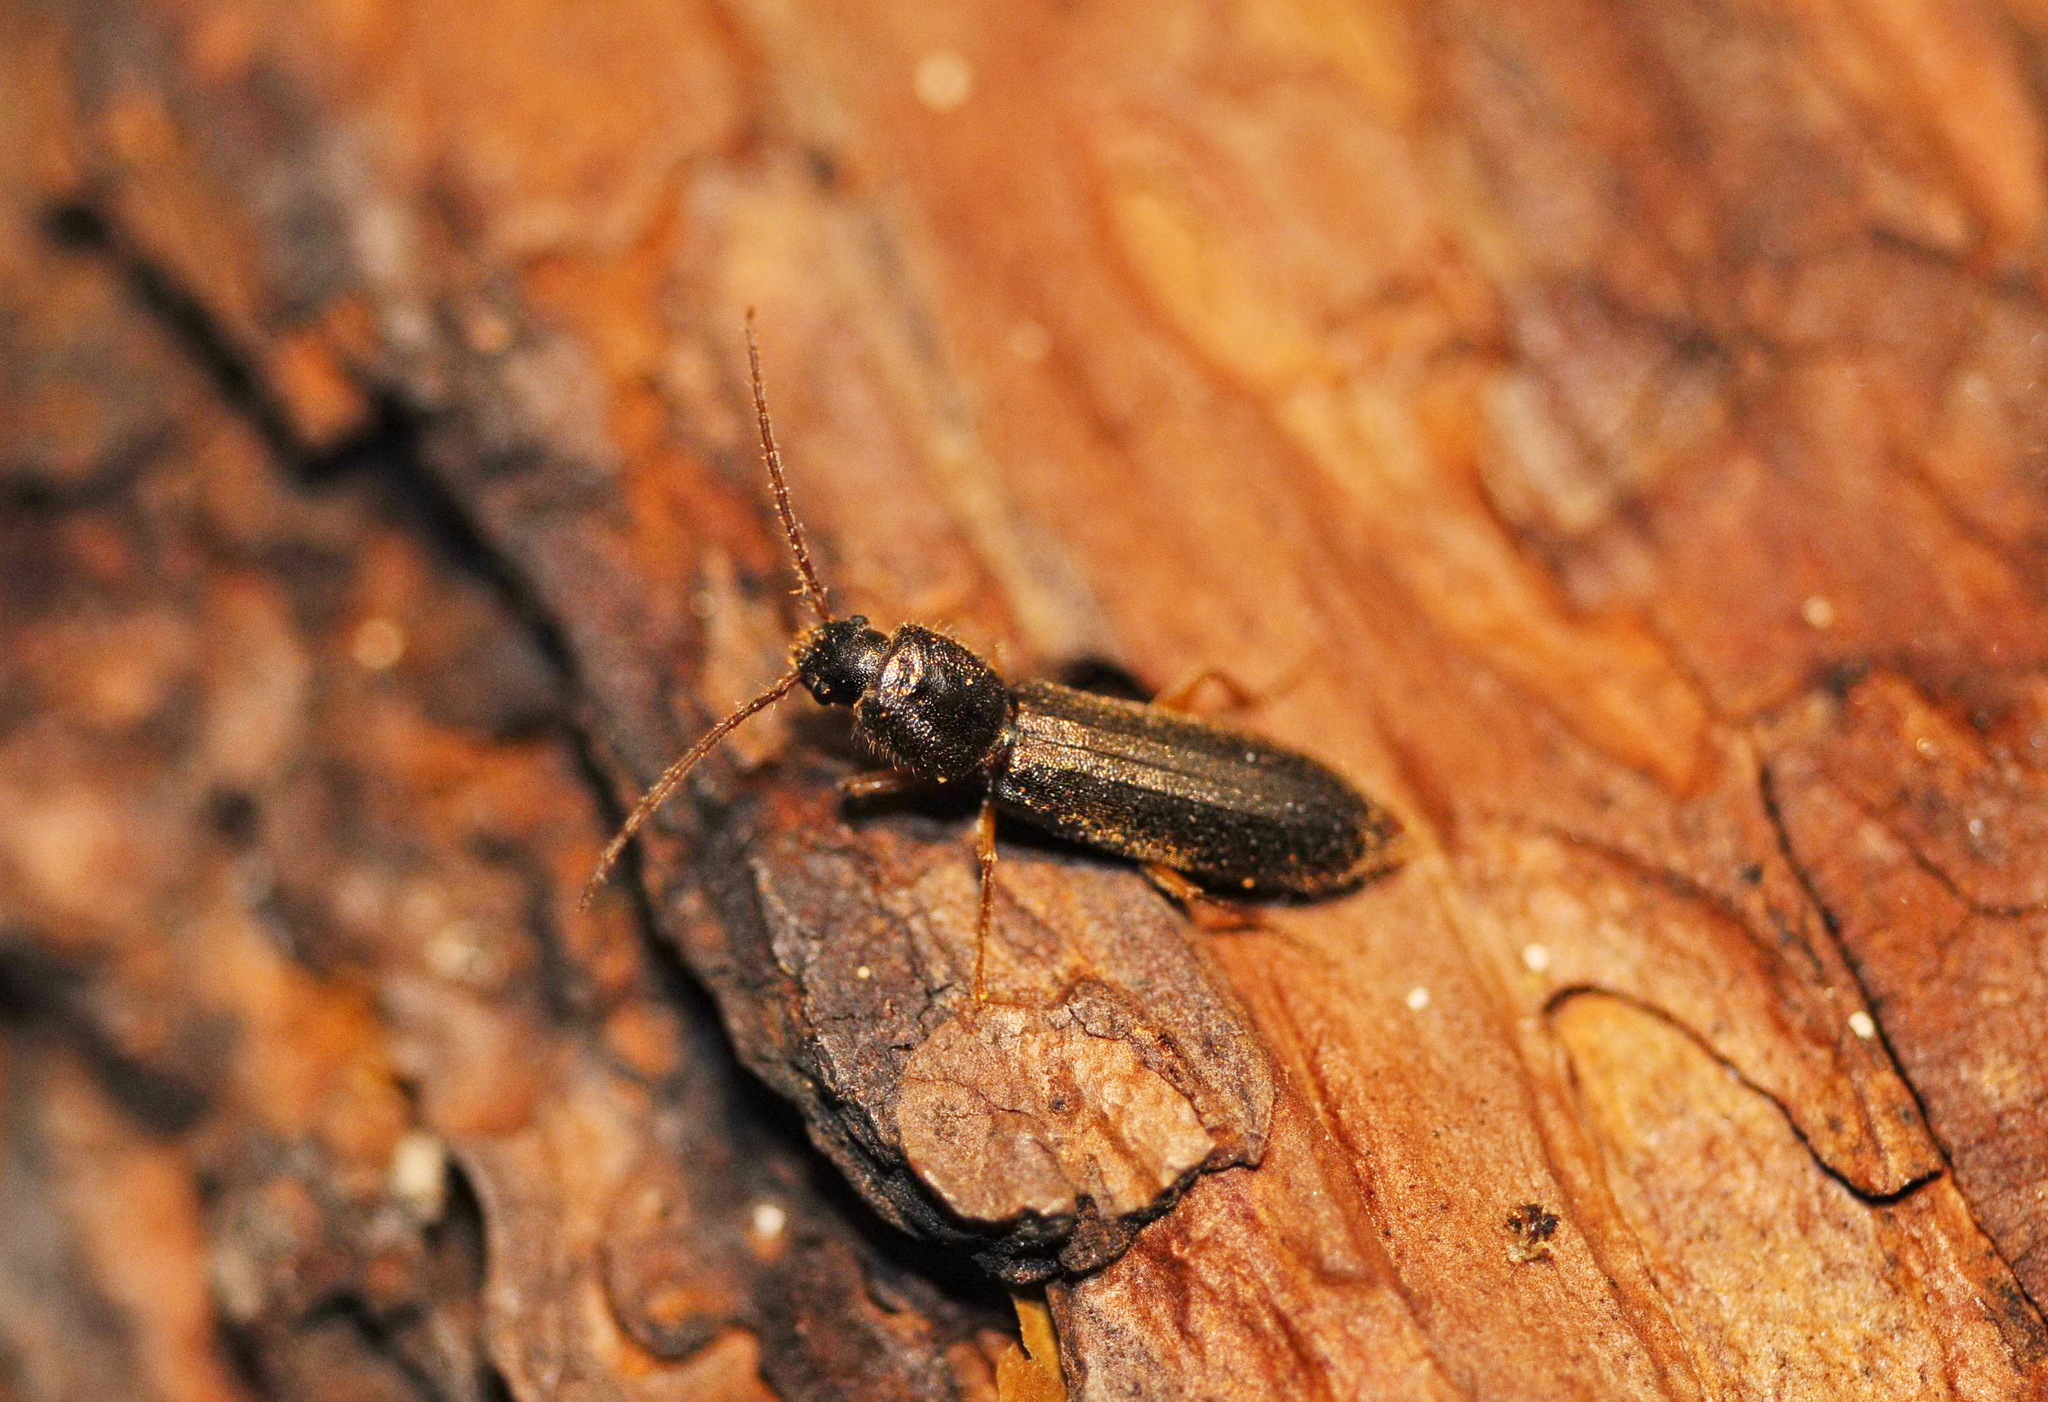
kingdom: Animalia
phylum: Arthropoda
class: Insecta
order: Coleoptera
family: Cerambycidae
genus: Nothorhina
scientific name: Nothorhina punctata
